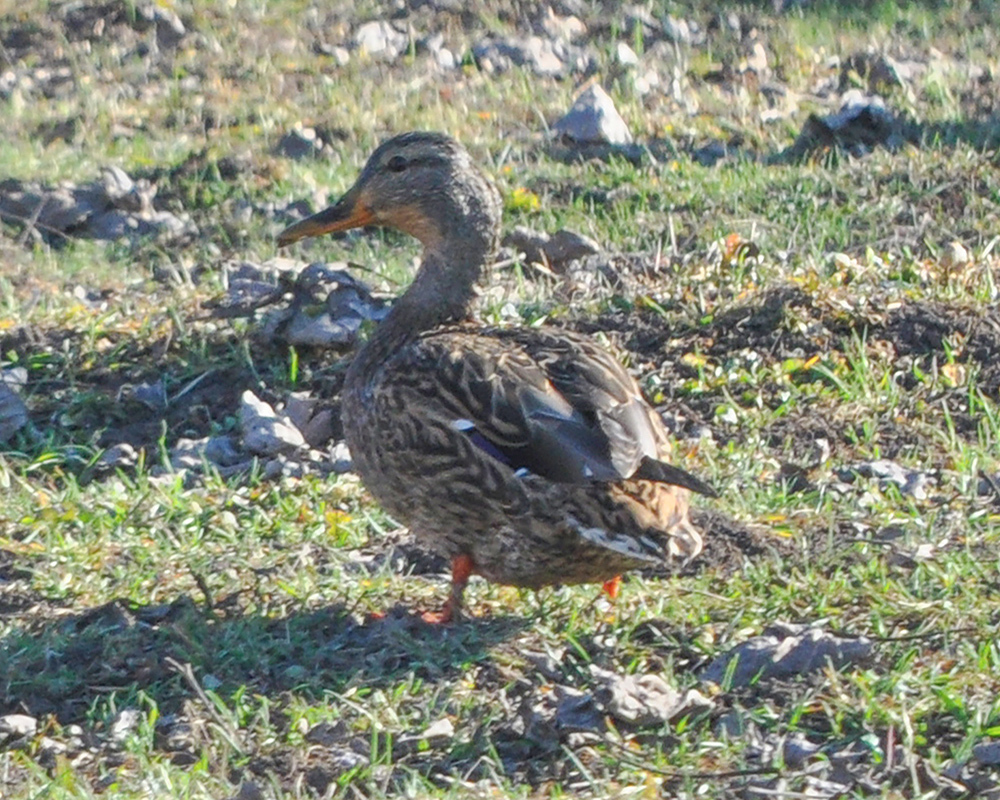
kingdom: Animalia
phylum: Chordata
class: Aves
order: Anseriformes
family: Anatidae
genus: Anas
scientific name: Anas platyrhynchos
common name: Mallard
